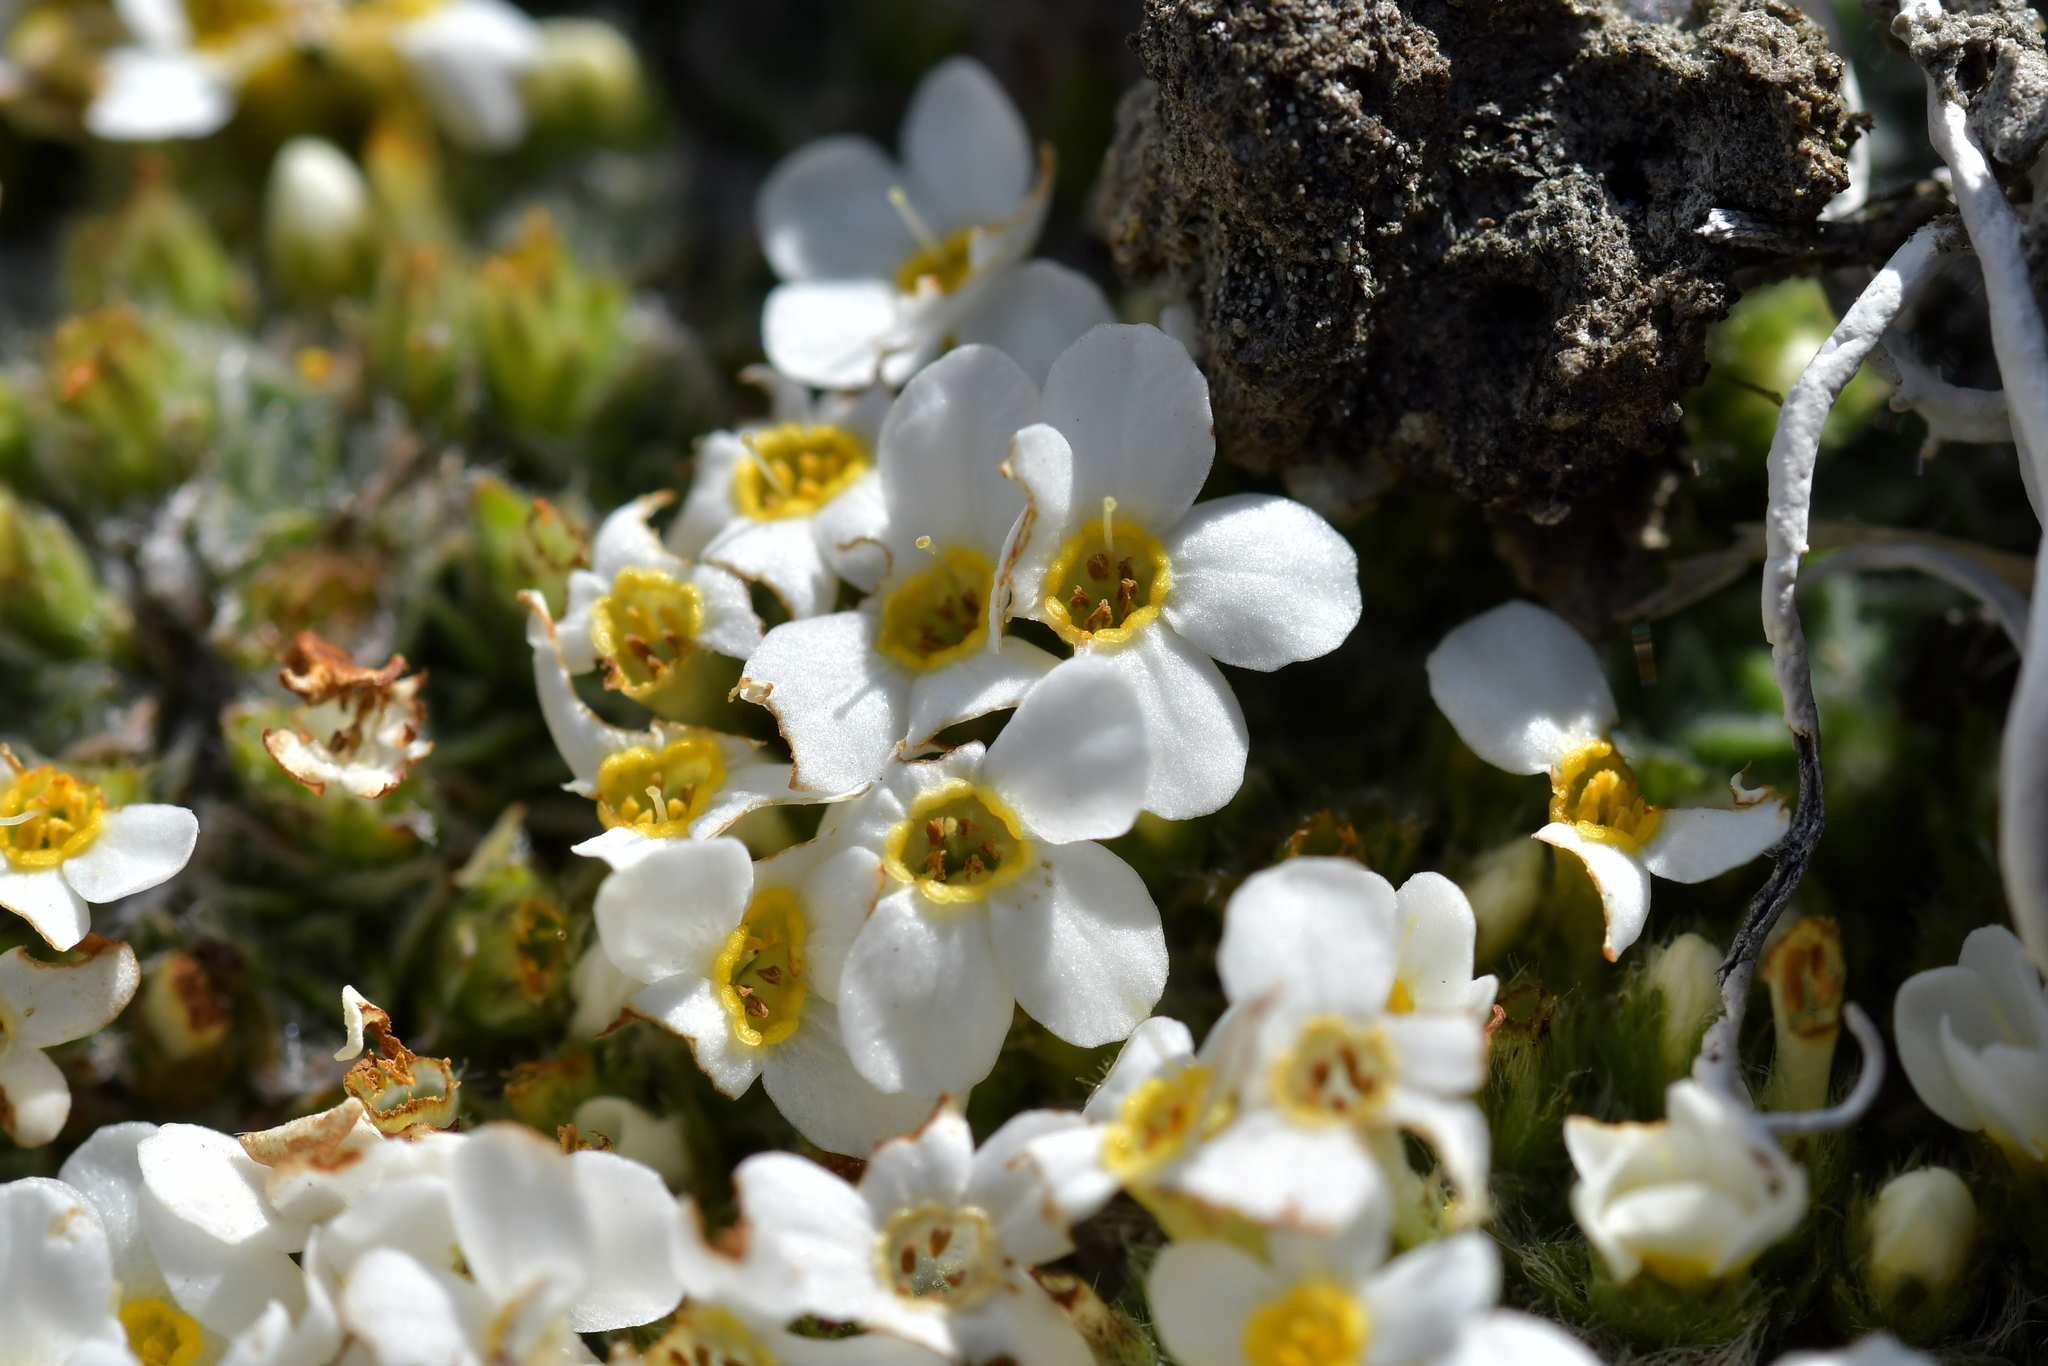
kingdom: Plantae
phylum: Tracheophyta
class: Magnoliopsida
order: Boraginales
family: Boraginaceae
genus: Myosotis
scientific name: Myosotis pulvinaris
